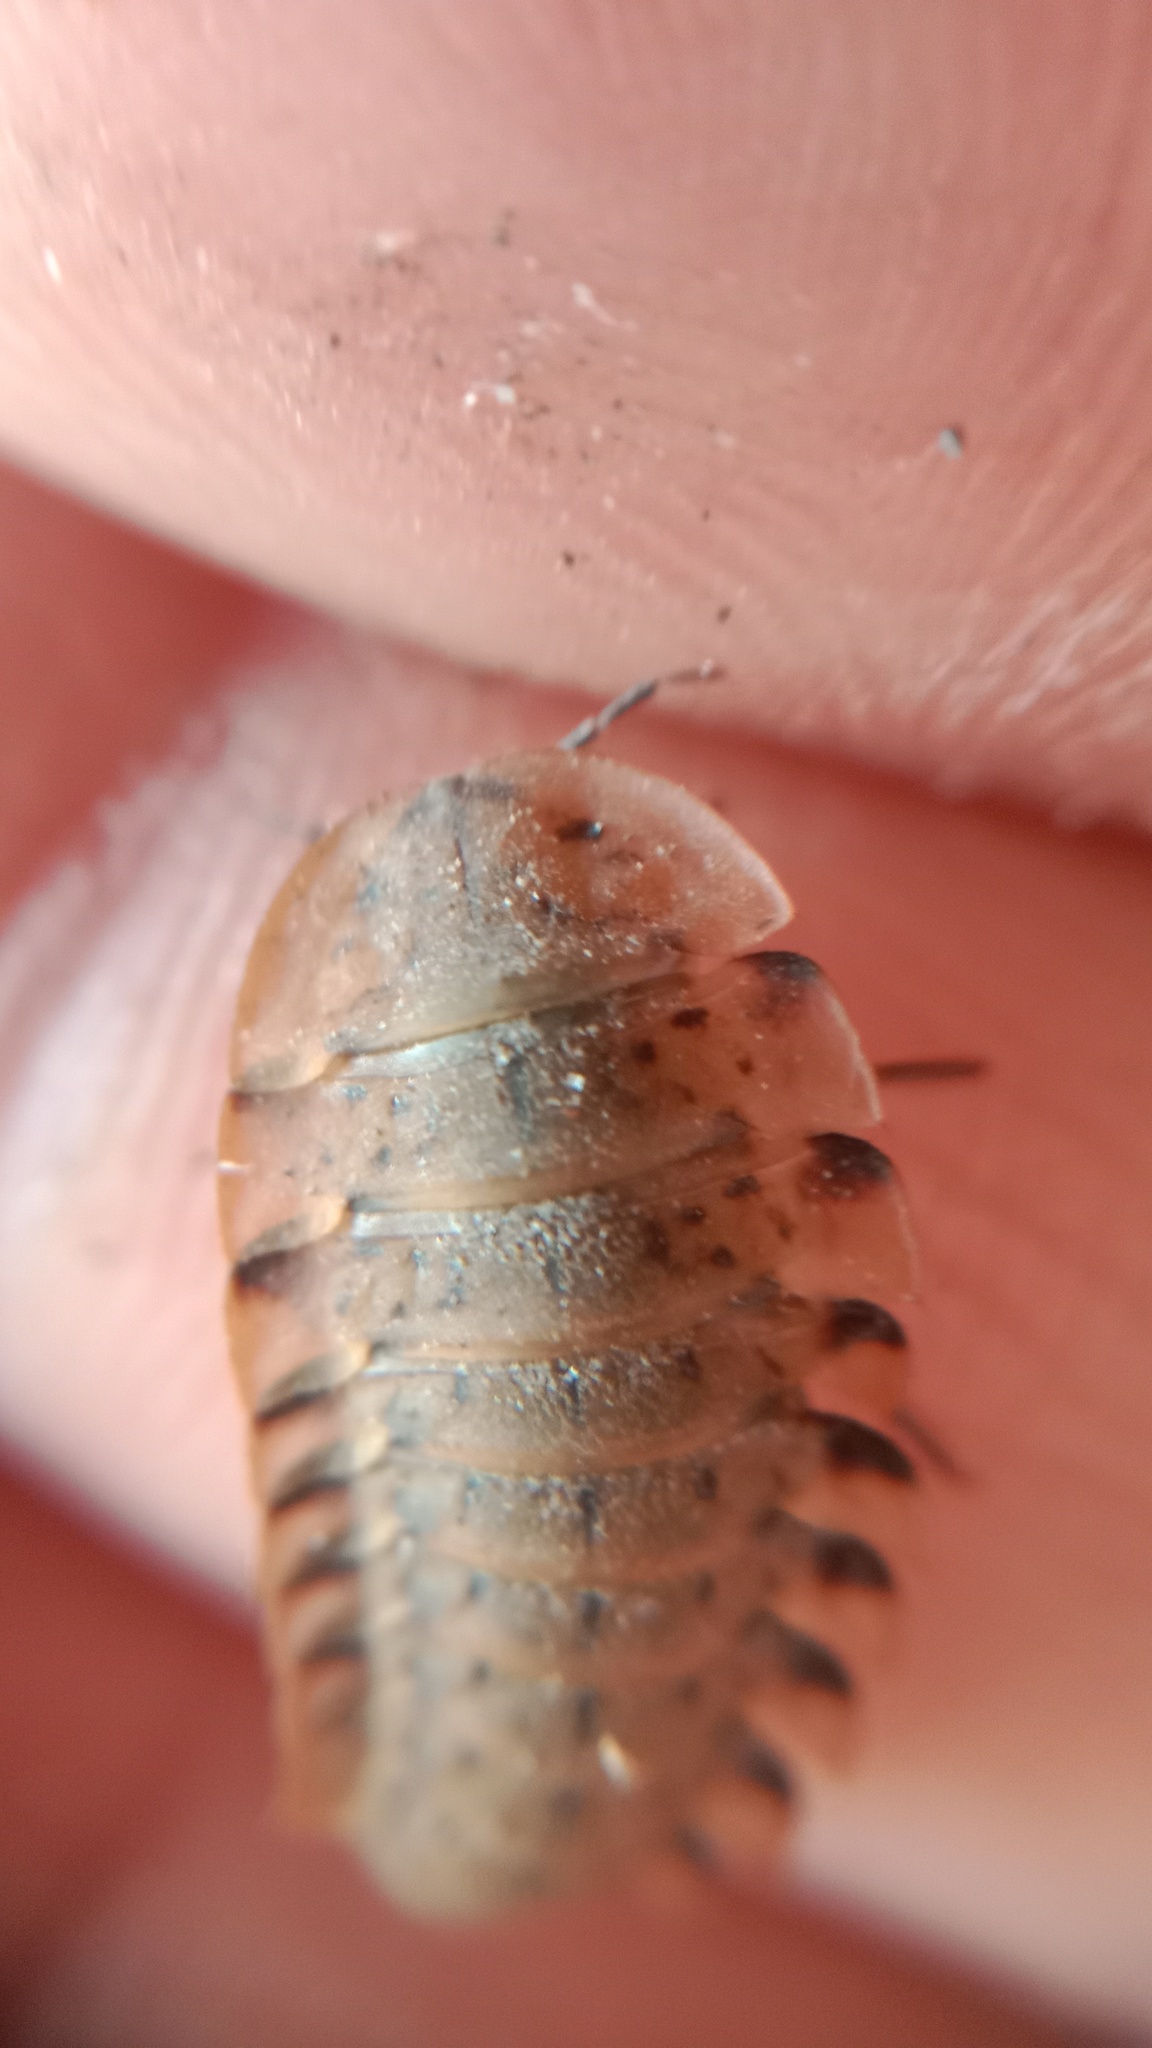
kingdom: Animalia
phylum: Arthropoda
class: Insecta
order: Coleoptera
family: Staphylinidae
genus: Silpha
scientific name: Silpha obscura
